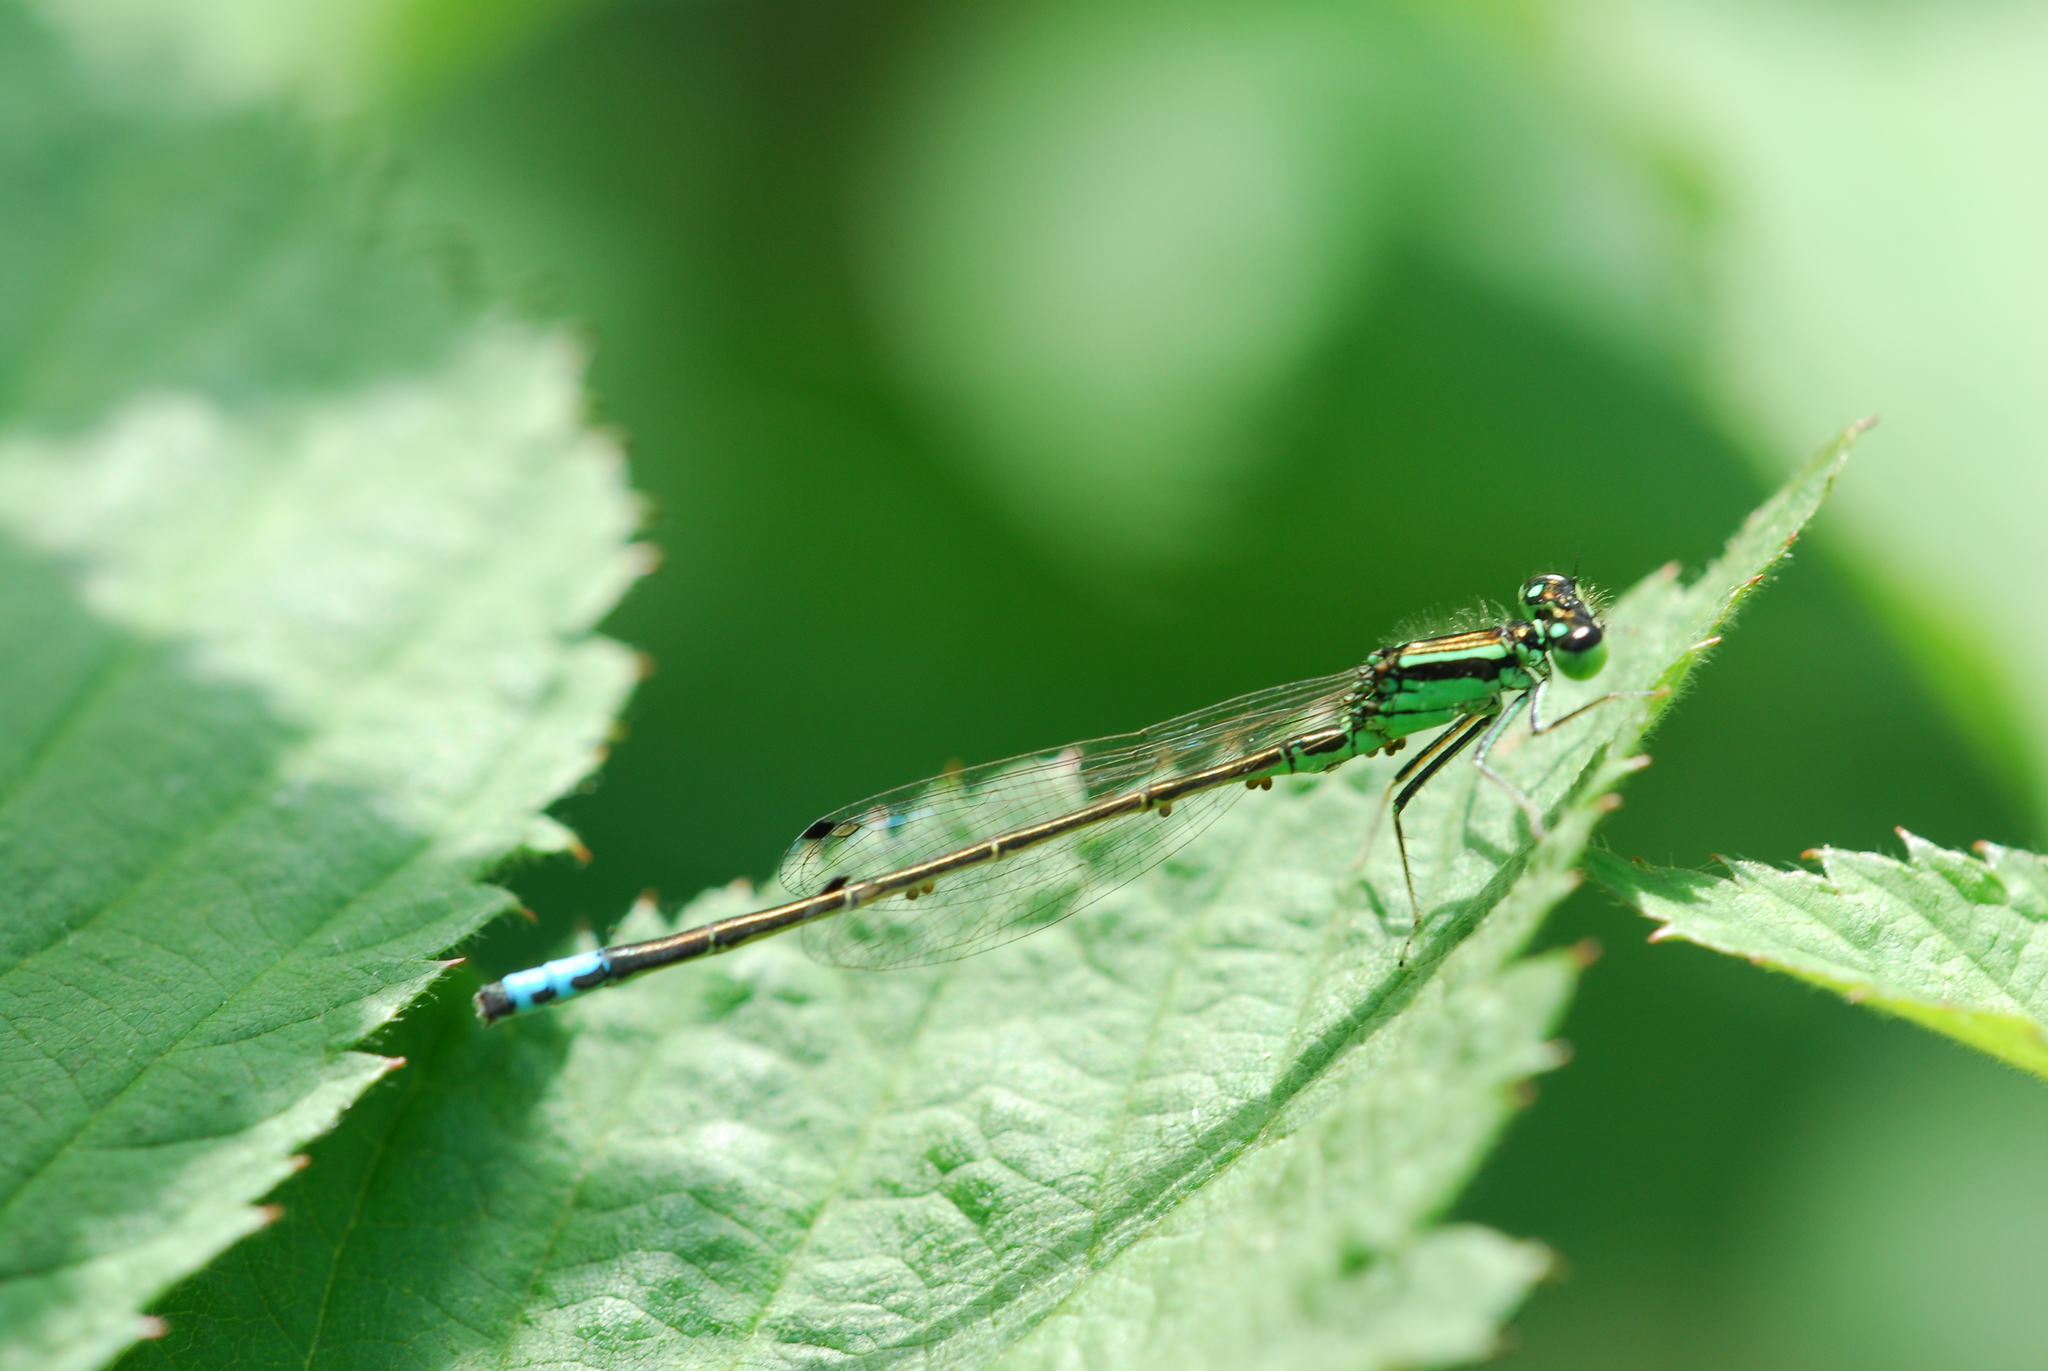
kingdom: Animalia
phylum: Arthropoda
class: Insecta
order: Odonata
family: Coenagrionidae
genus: Ischnura
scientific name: Ischnura verticalis
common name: Eastern forktail
